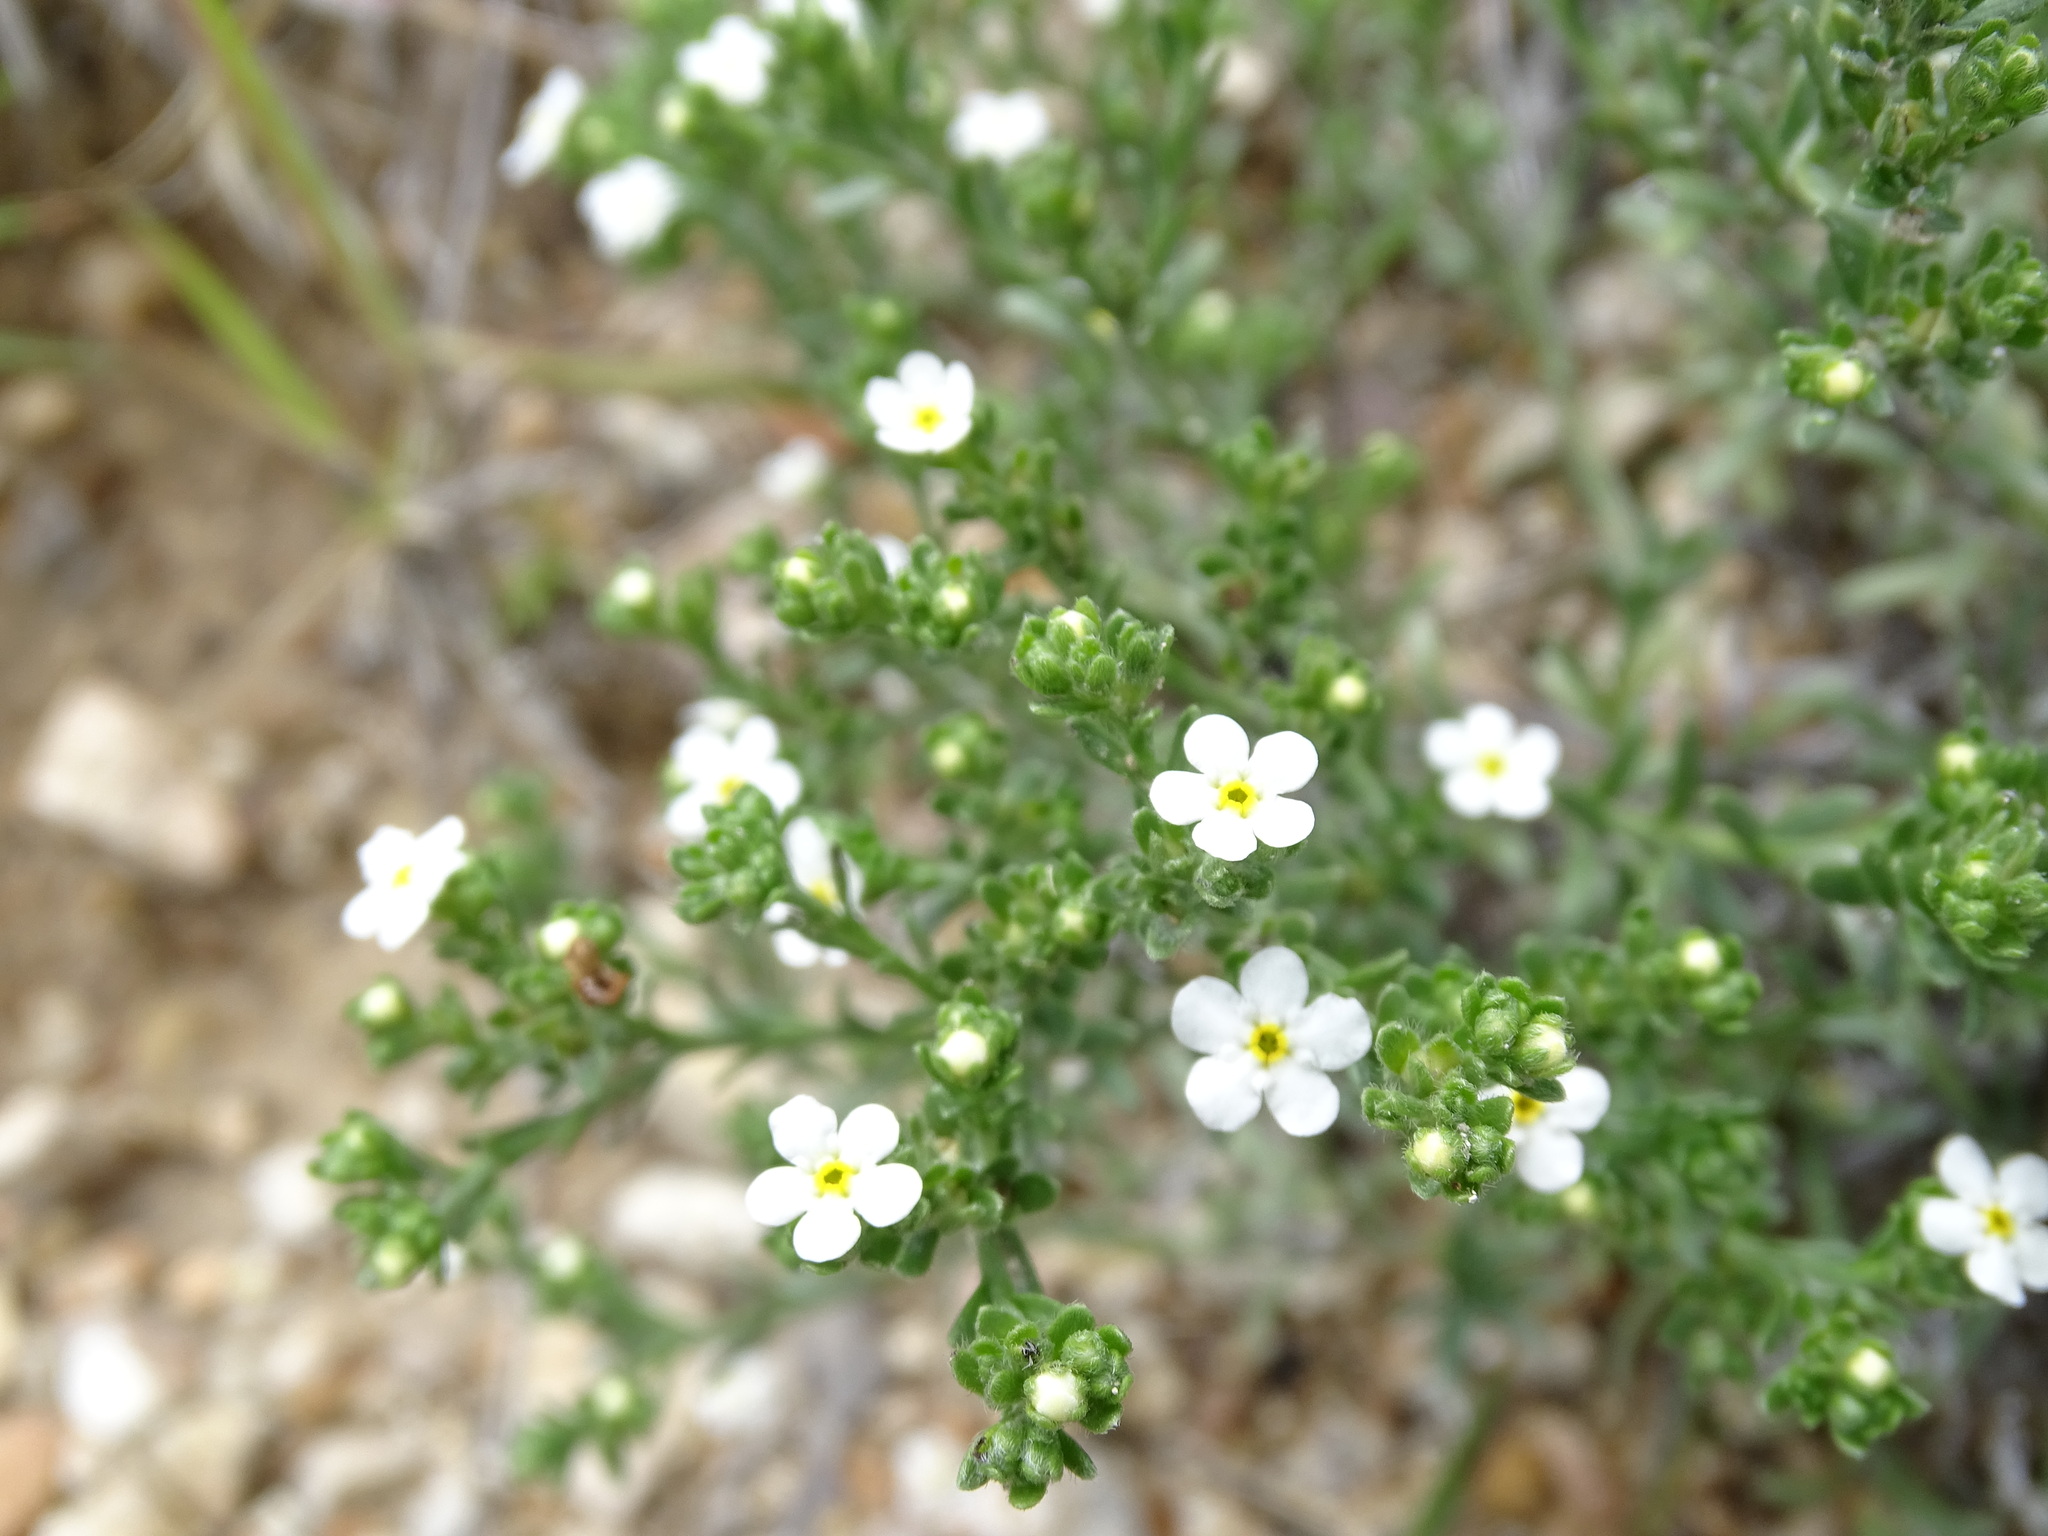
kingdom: Plantae
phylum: Tracheophyta
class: Magnoliopsida
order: Boraginales
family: Boraginaceae
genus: Antiphytum
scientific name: Antiphytum caespitosum
